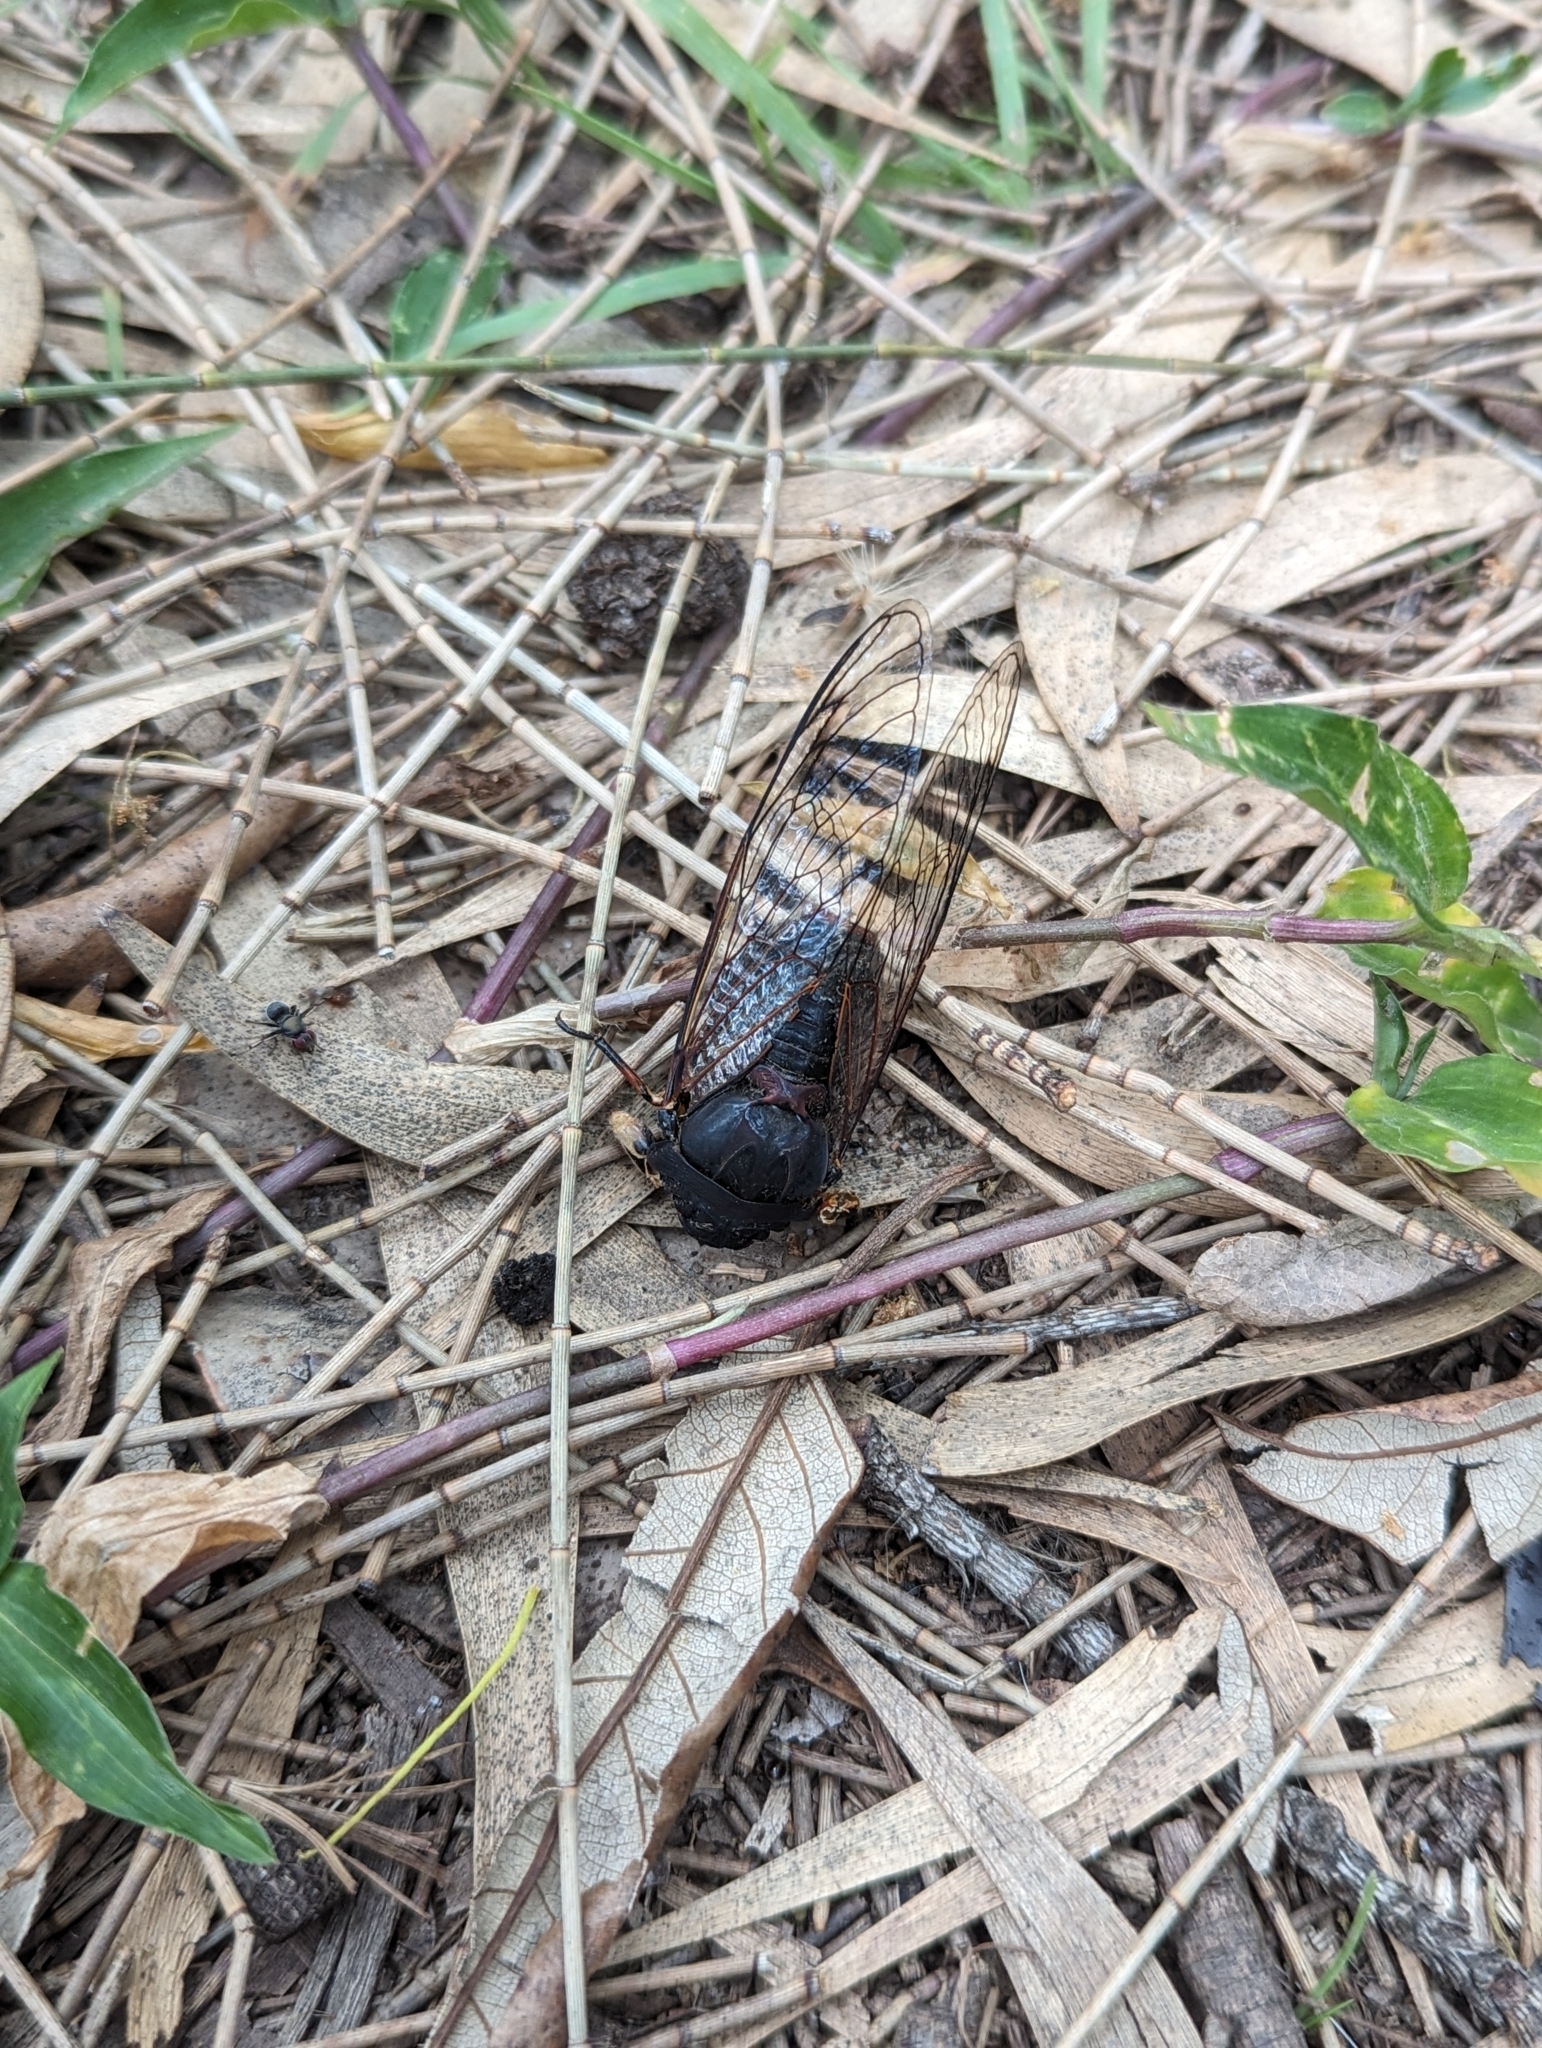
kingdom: Animalia
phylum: Arthropoda
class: Insecta
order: Hemiptera
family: Cicadidae
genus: Psaltoda
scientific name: Psaltoda plaga
